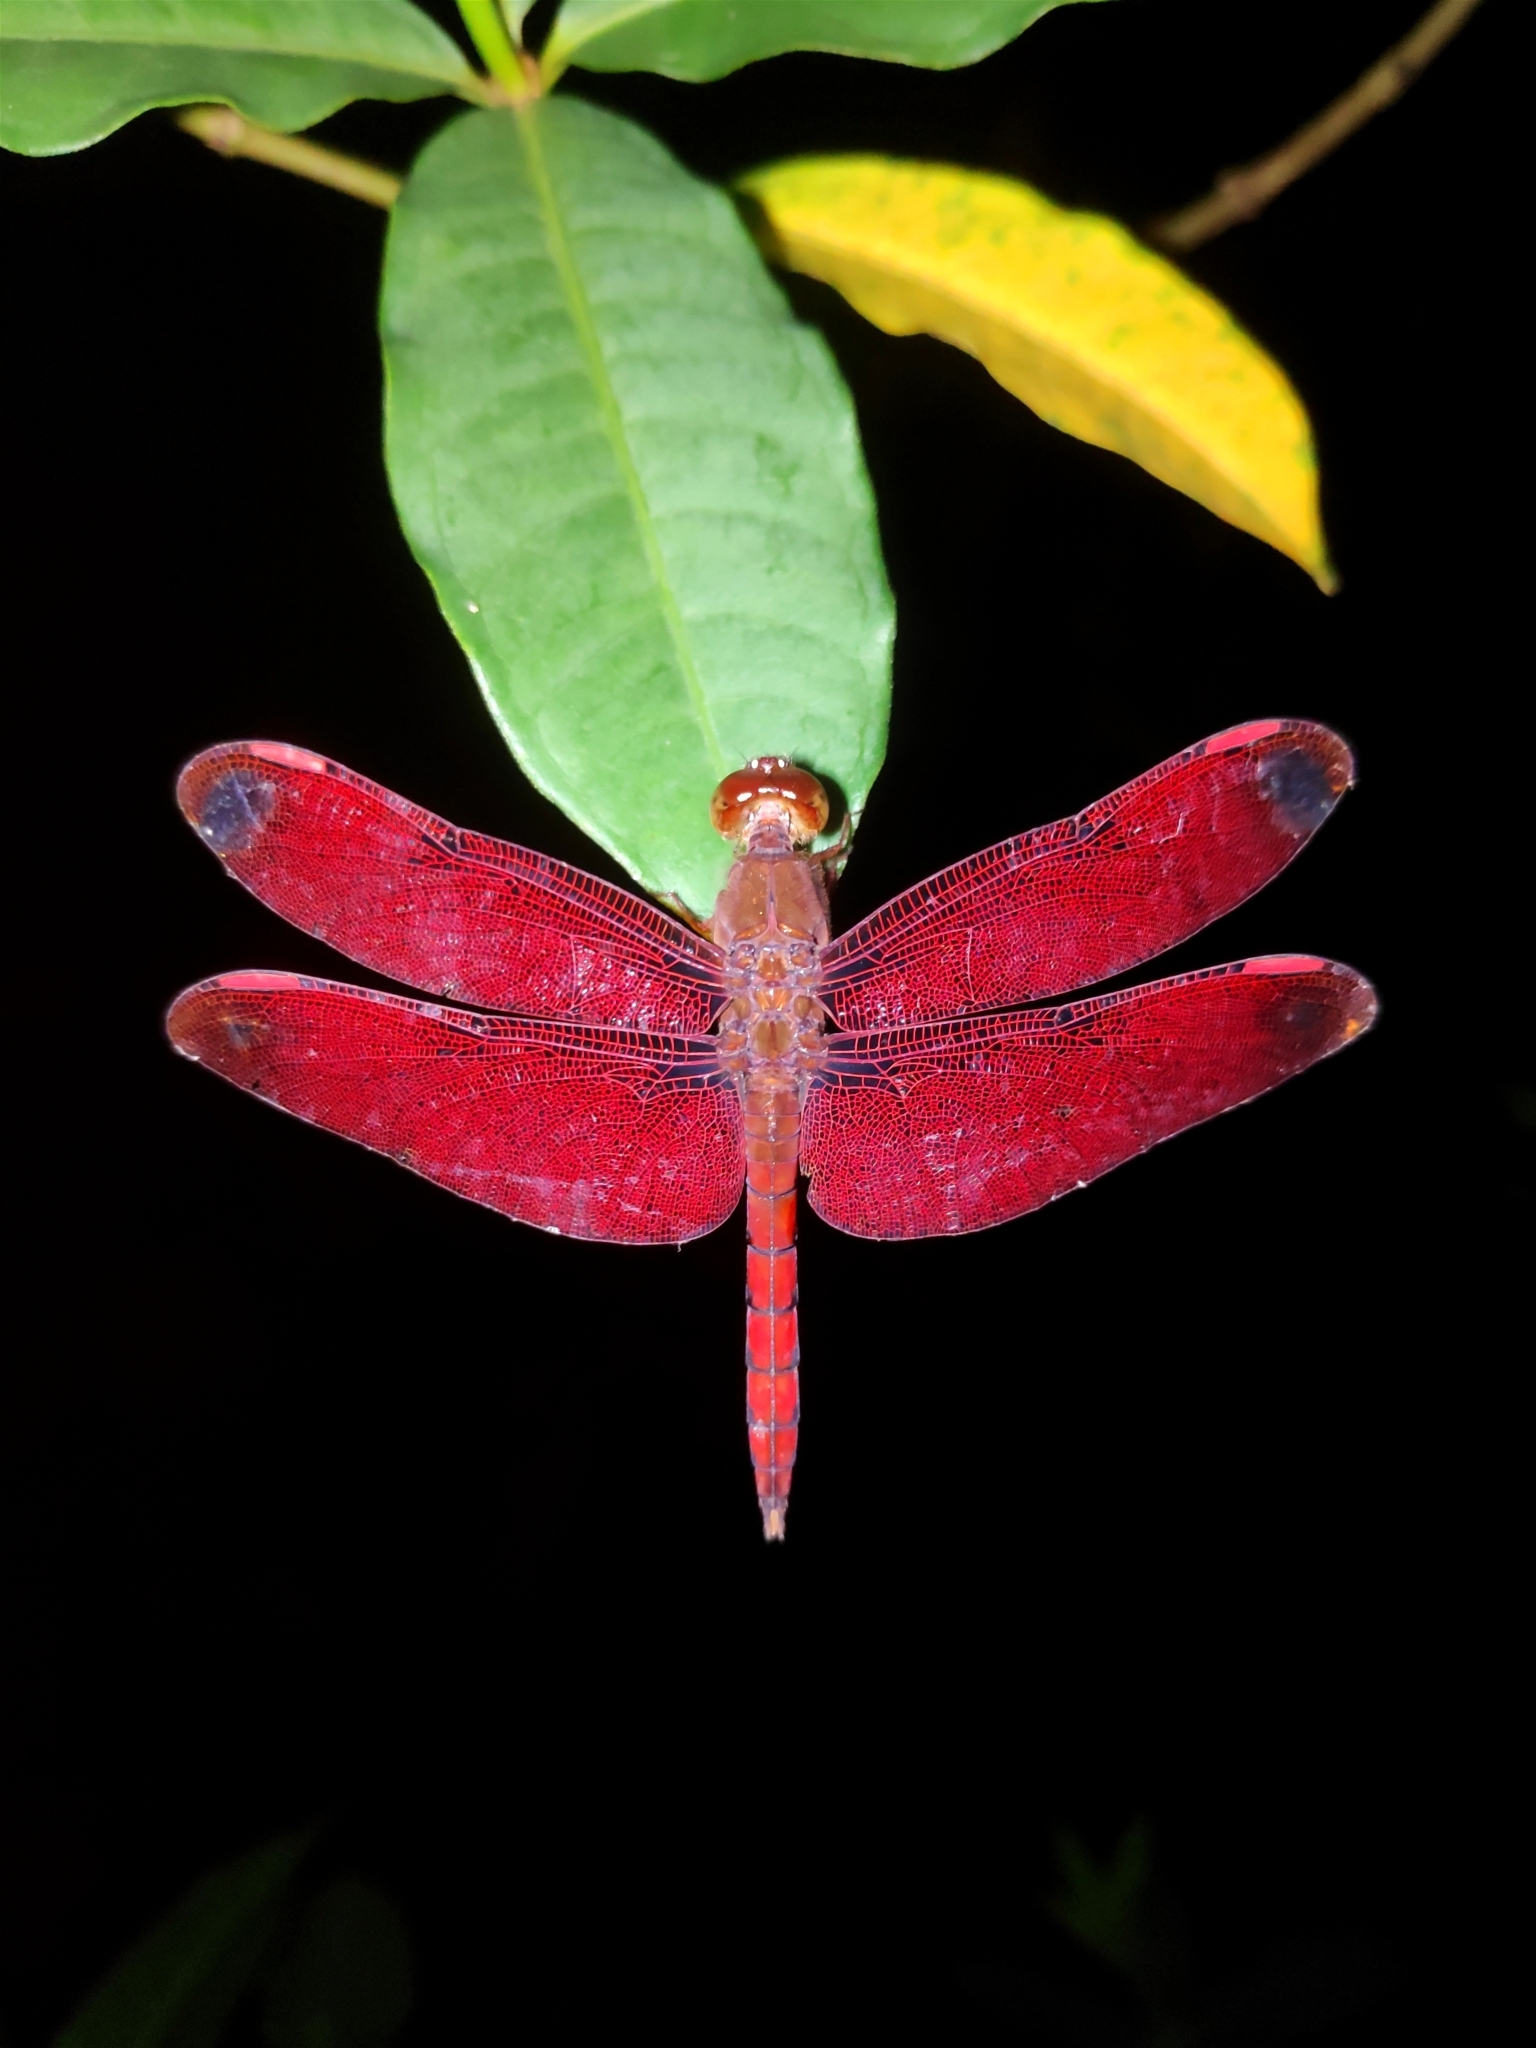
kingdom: Animalia
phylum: Arthropoda
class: Insecta
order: Odonata
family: Libellulidae
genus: Neurothemis
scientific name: Neurothemis fulvia
